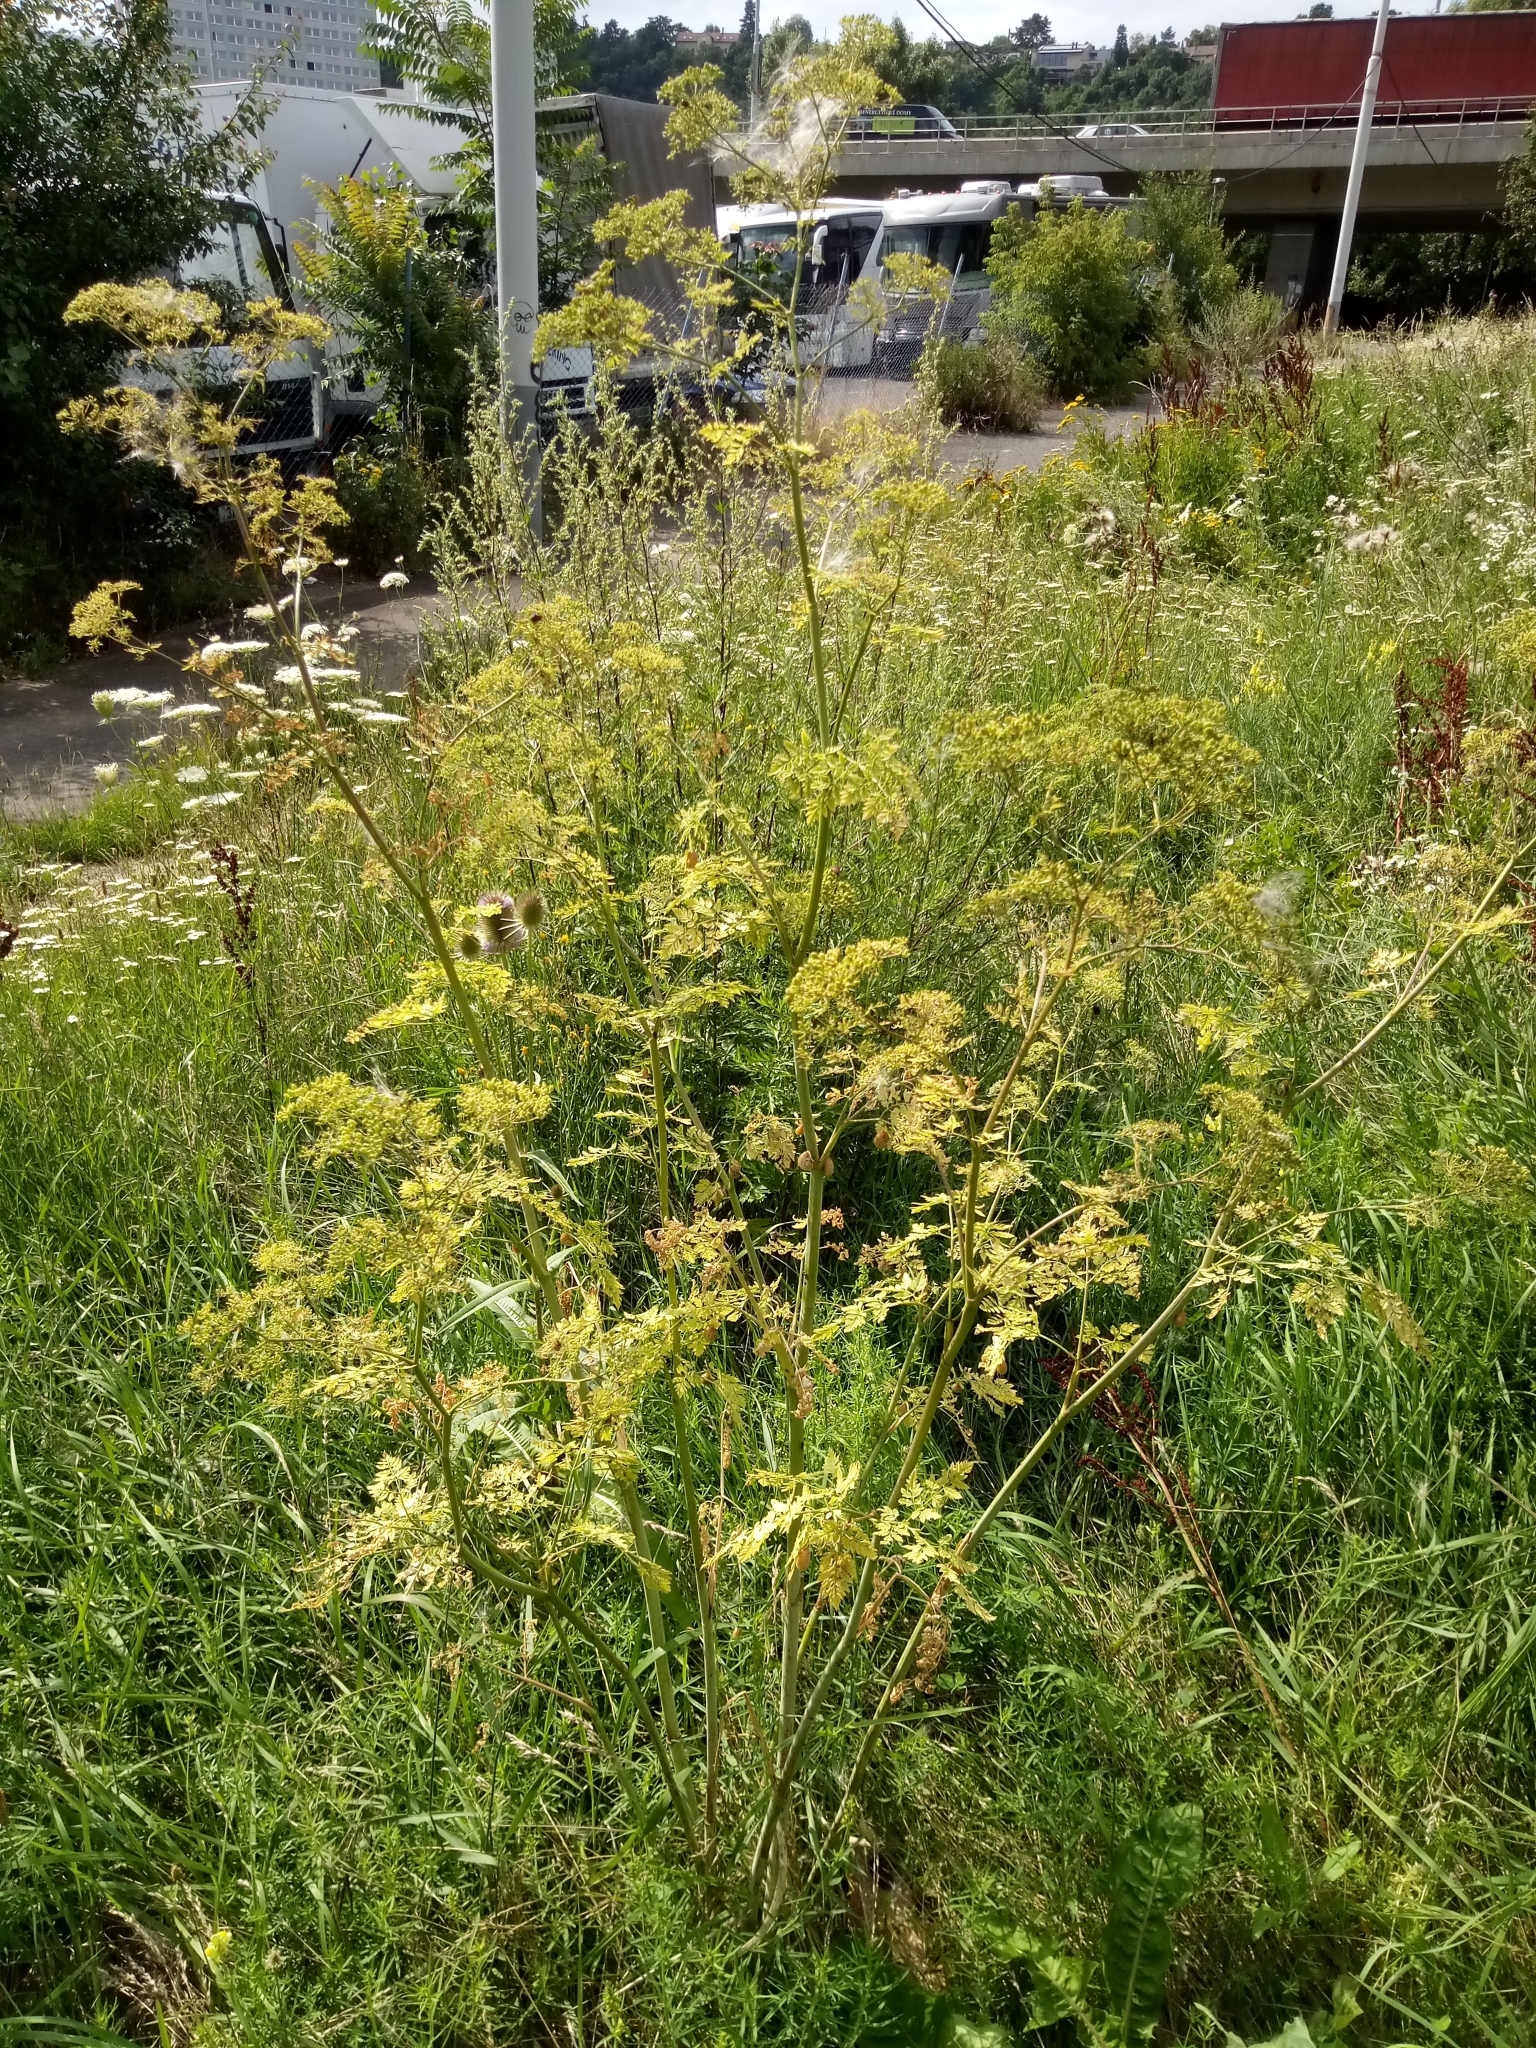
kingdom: Plantae
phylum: Tracheophyta
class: Magnoliopsida
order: Apiales
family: Apiaceae
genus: Conium
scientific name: Conium maculatum
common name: Hemlock
